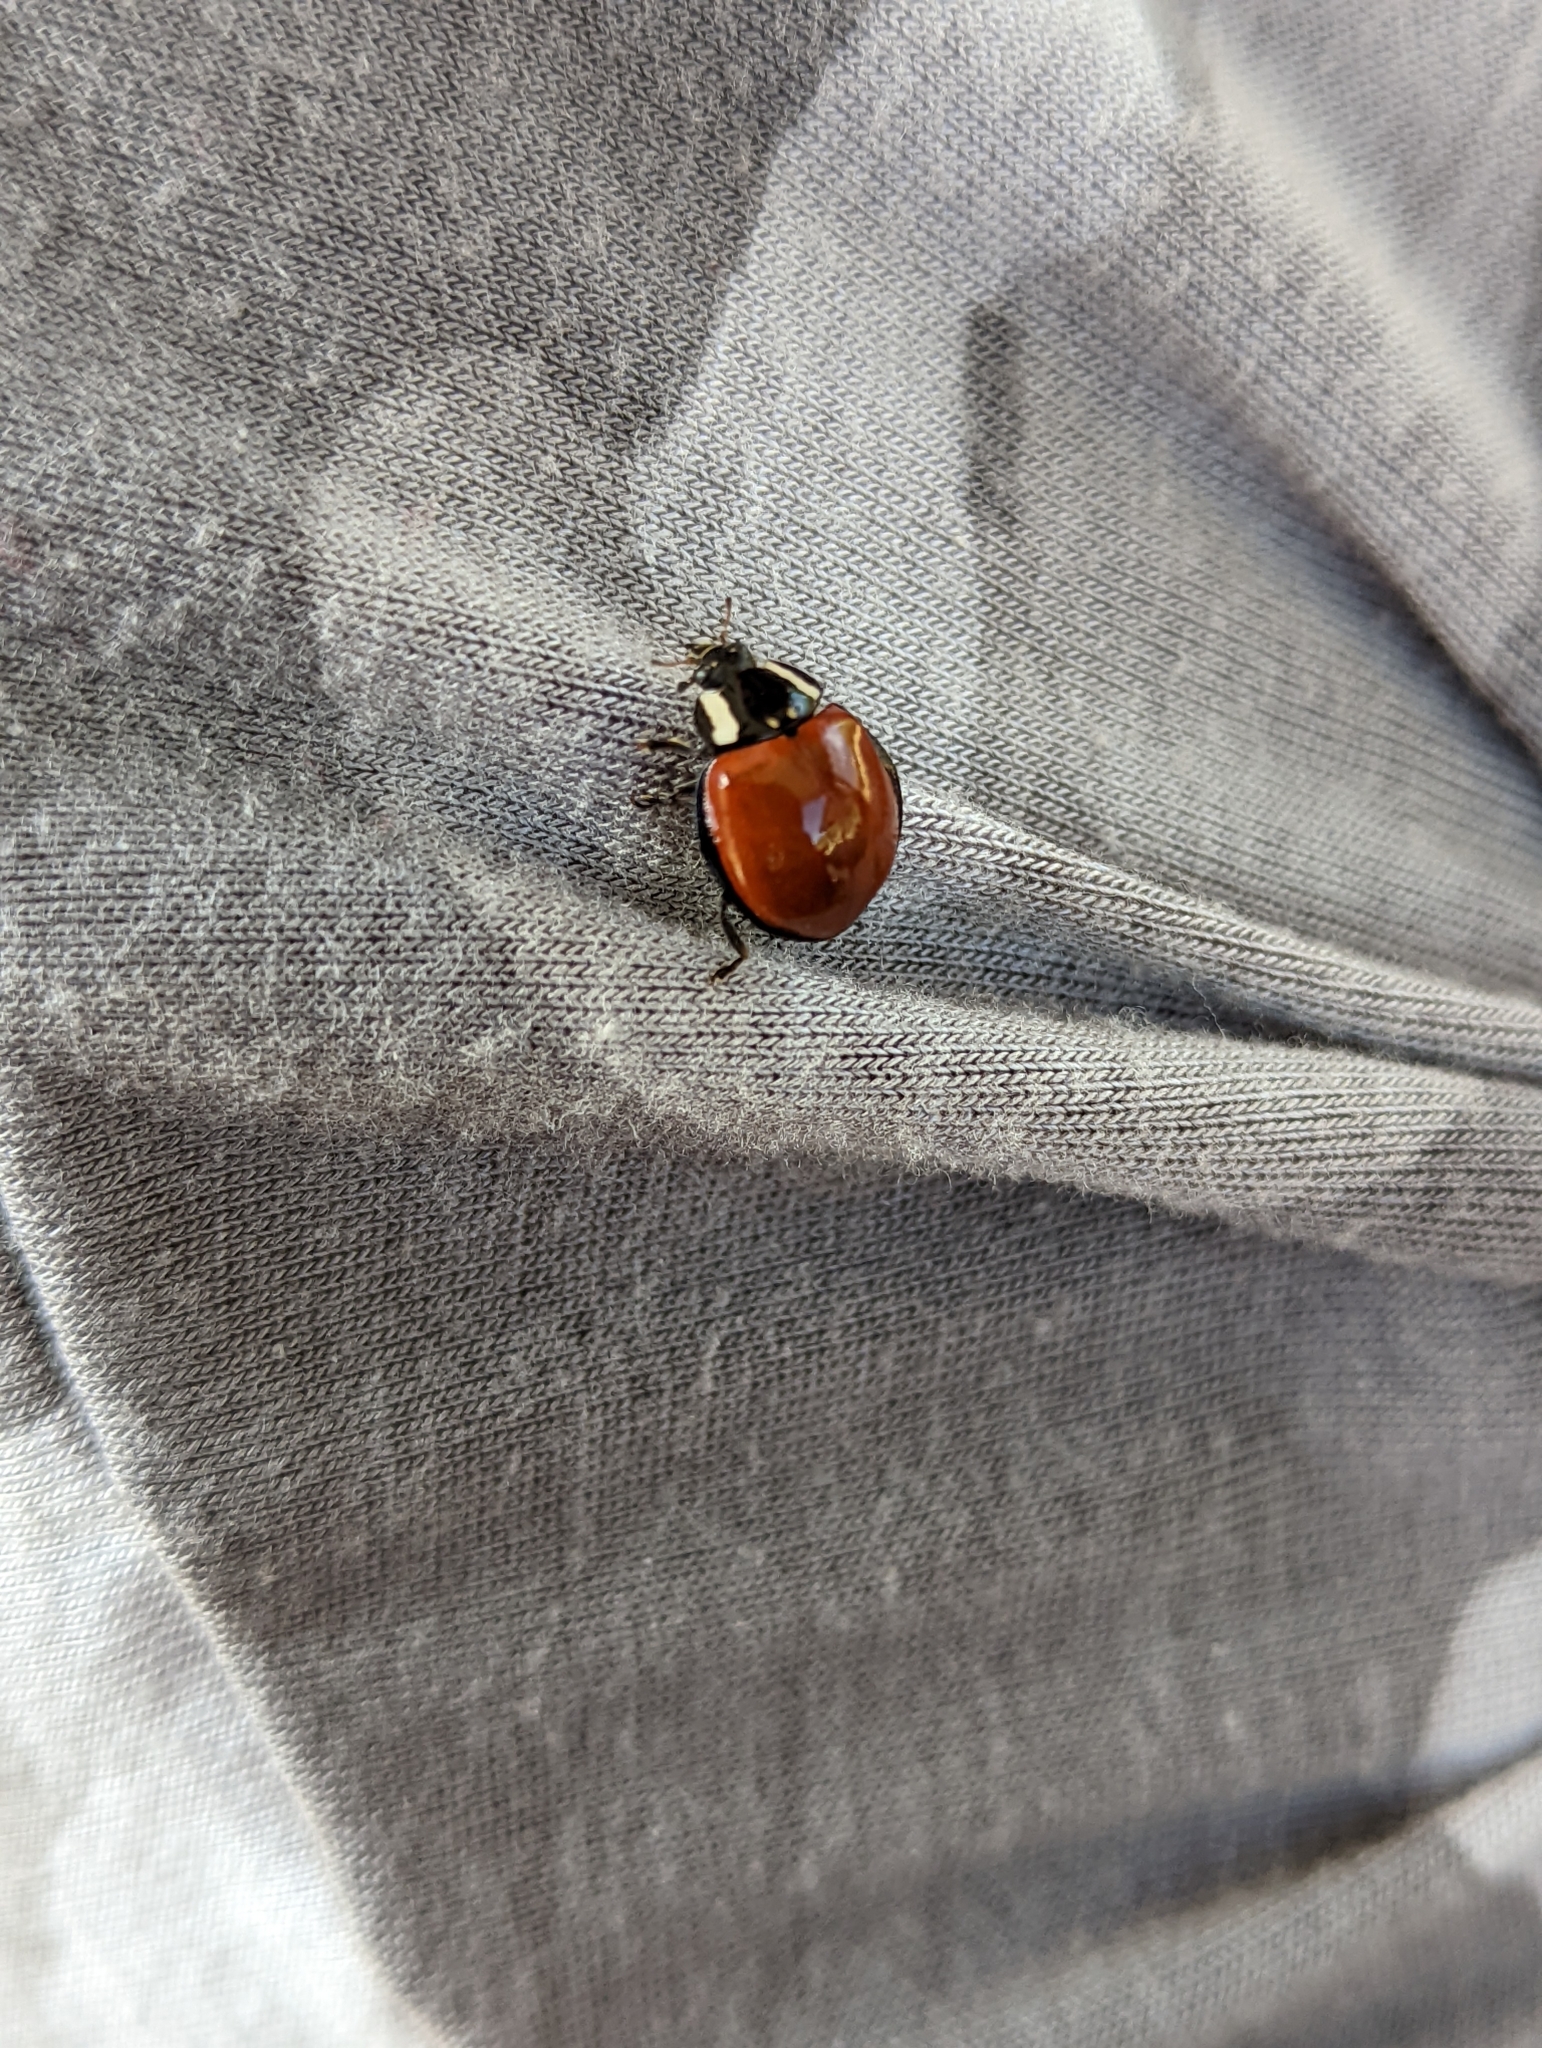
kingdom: Animalia
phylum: Arthropoda
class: Insecta
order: Coleoptera
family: Coccinellidae
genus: Anatis
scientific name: Anatis lecontei
